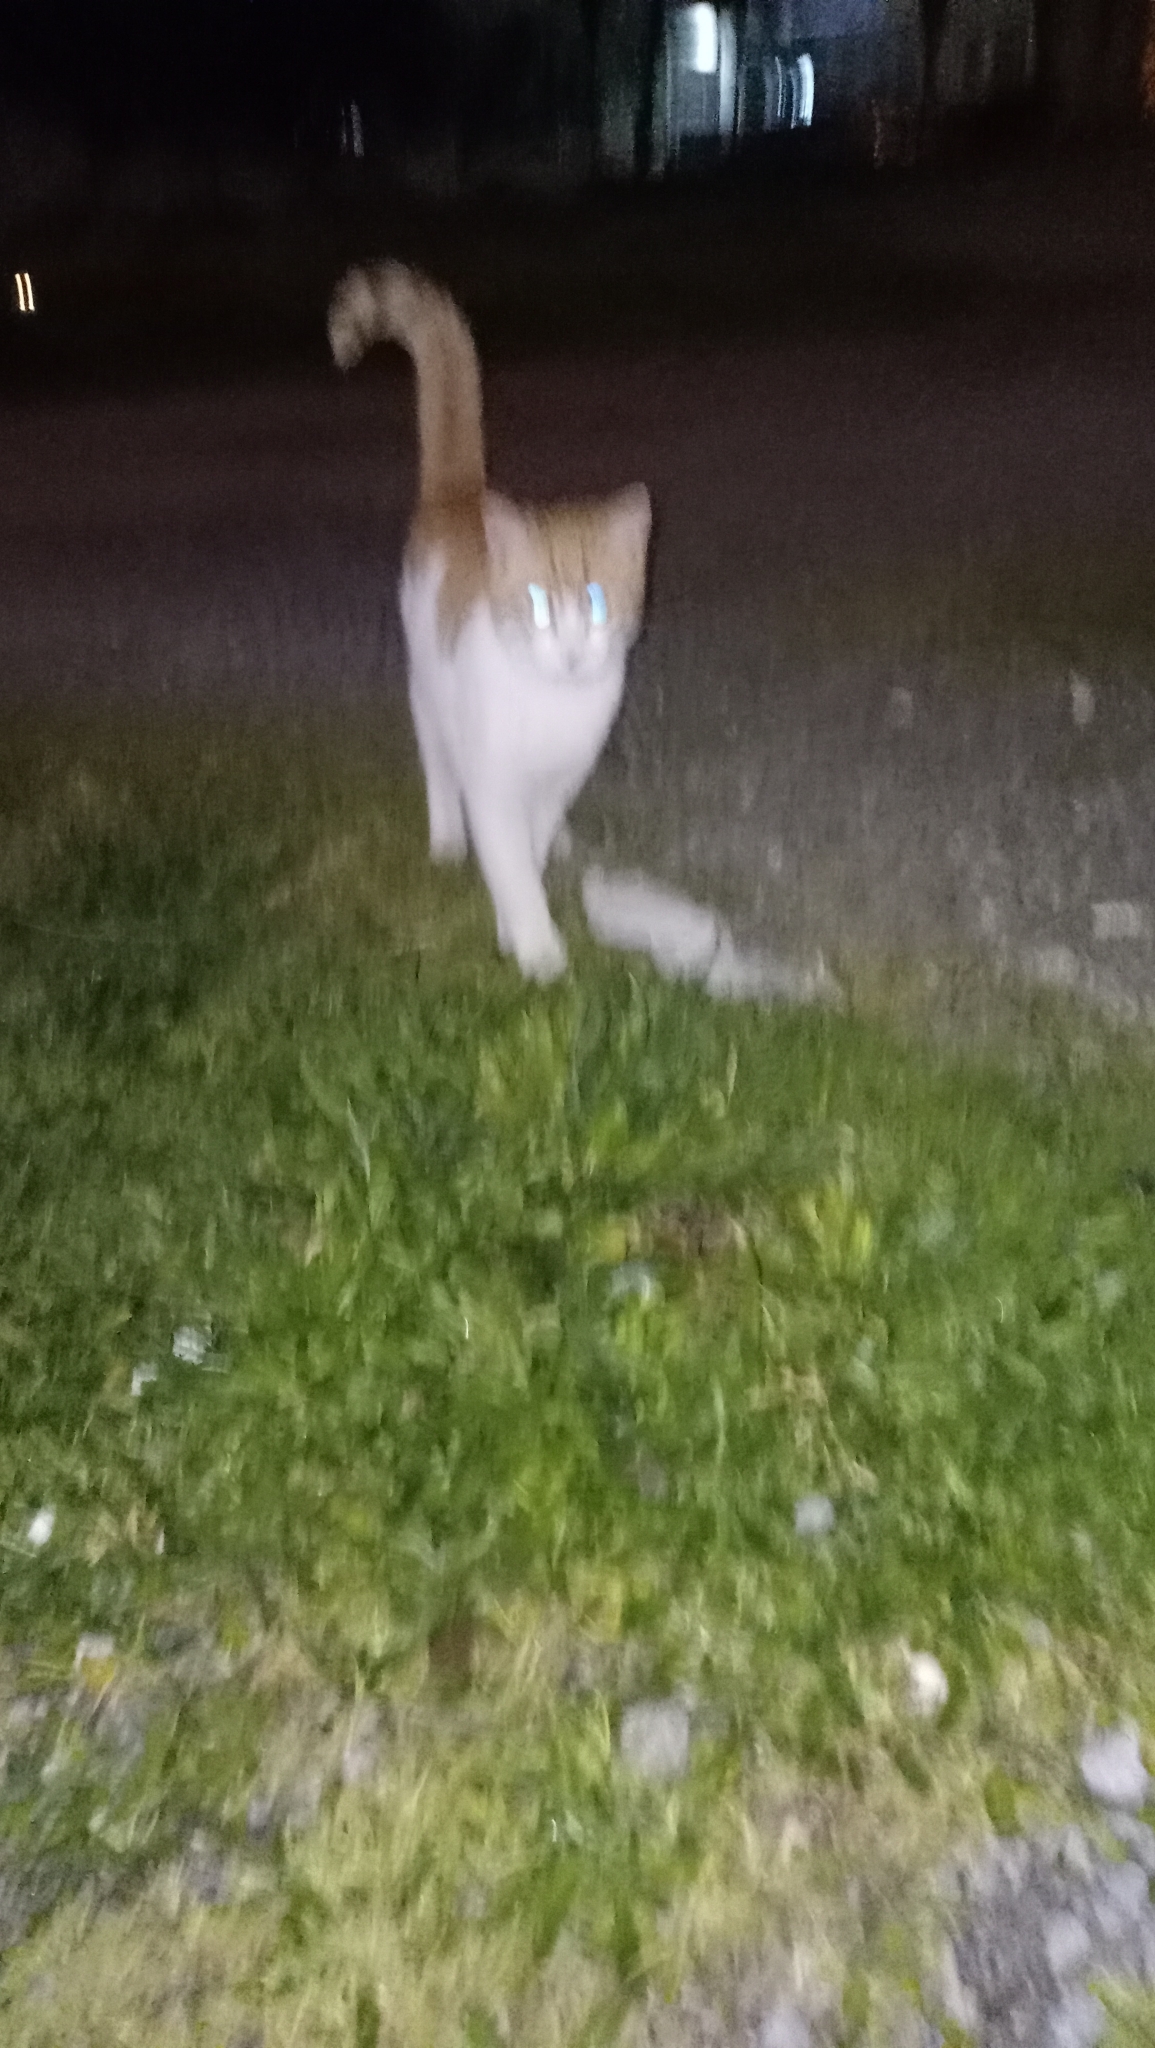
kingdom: Animalia
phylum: Chordata
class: Mammalia
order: Carnivora
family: Felidae
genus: Felis
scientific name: Felis catus
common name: Domestic cat
